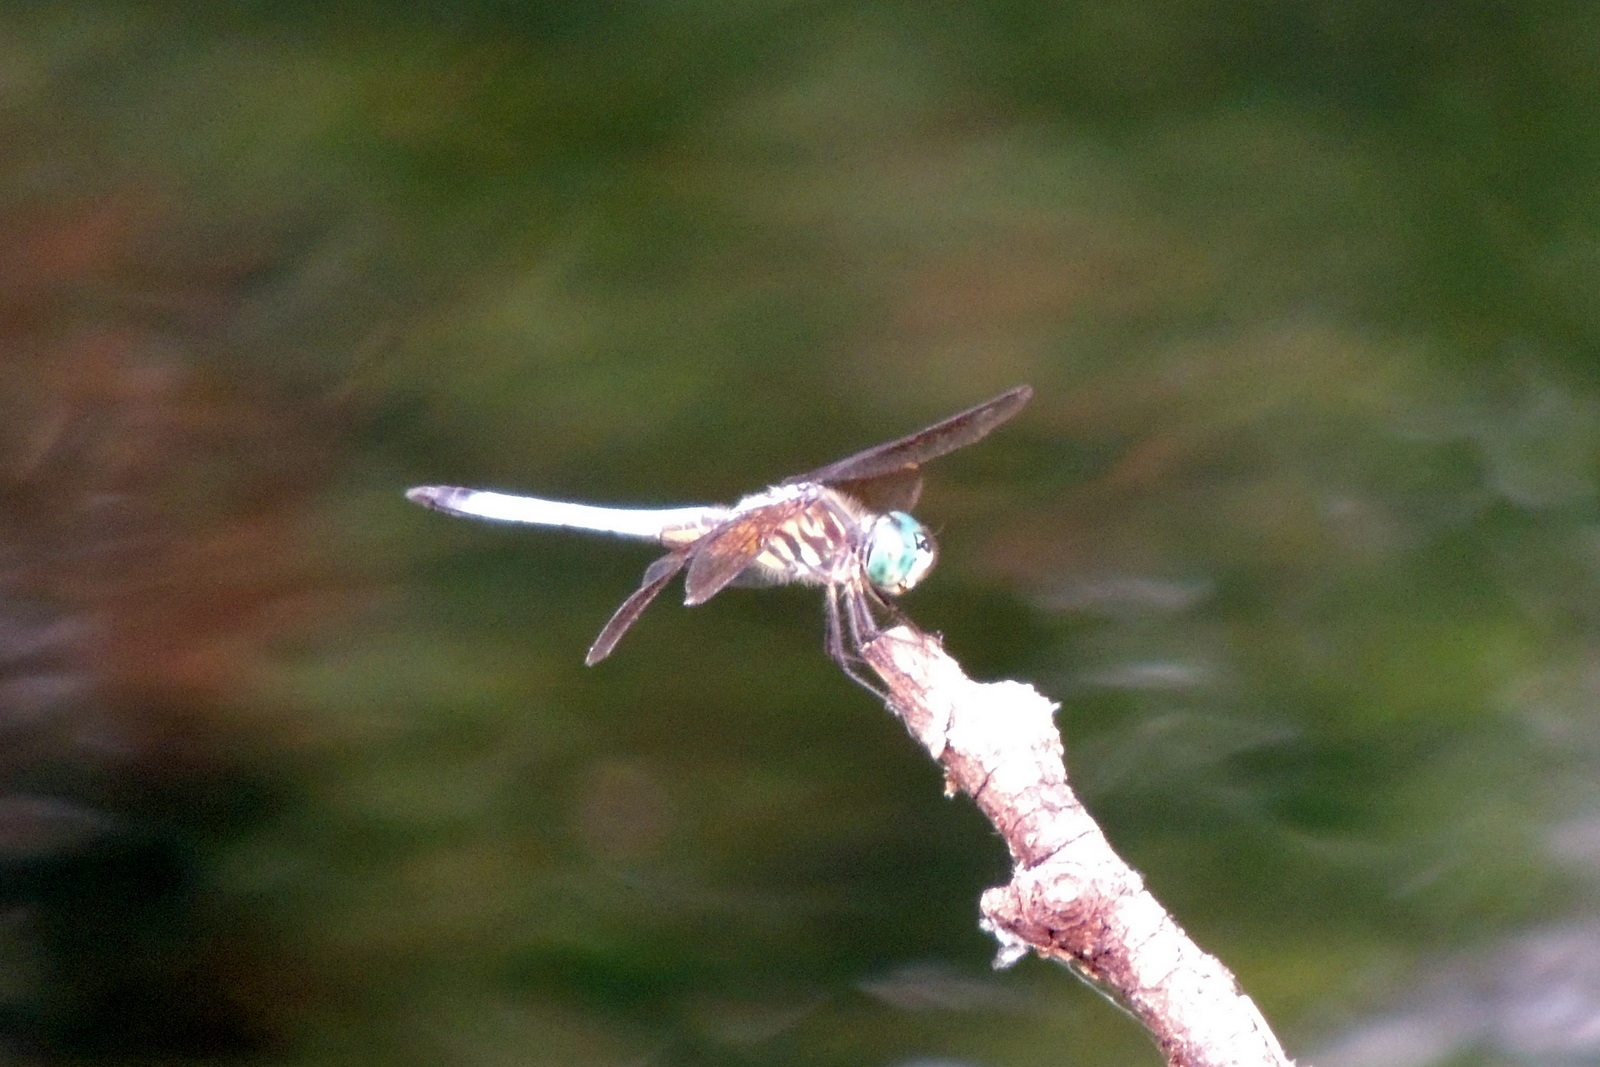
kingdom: Animalia
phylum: Arthropoda
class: Insecta
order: Odonata
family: Libellulidae
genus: Pachydiplax
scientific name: Pachydiplax longipennis
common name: Blue dasher
